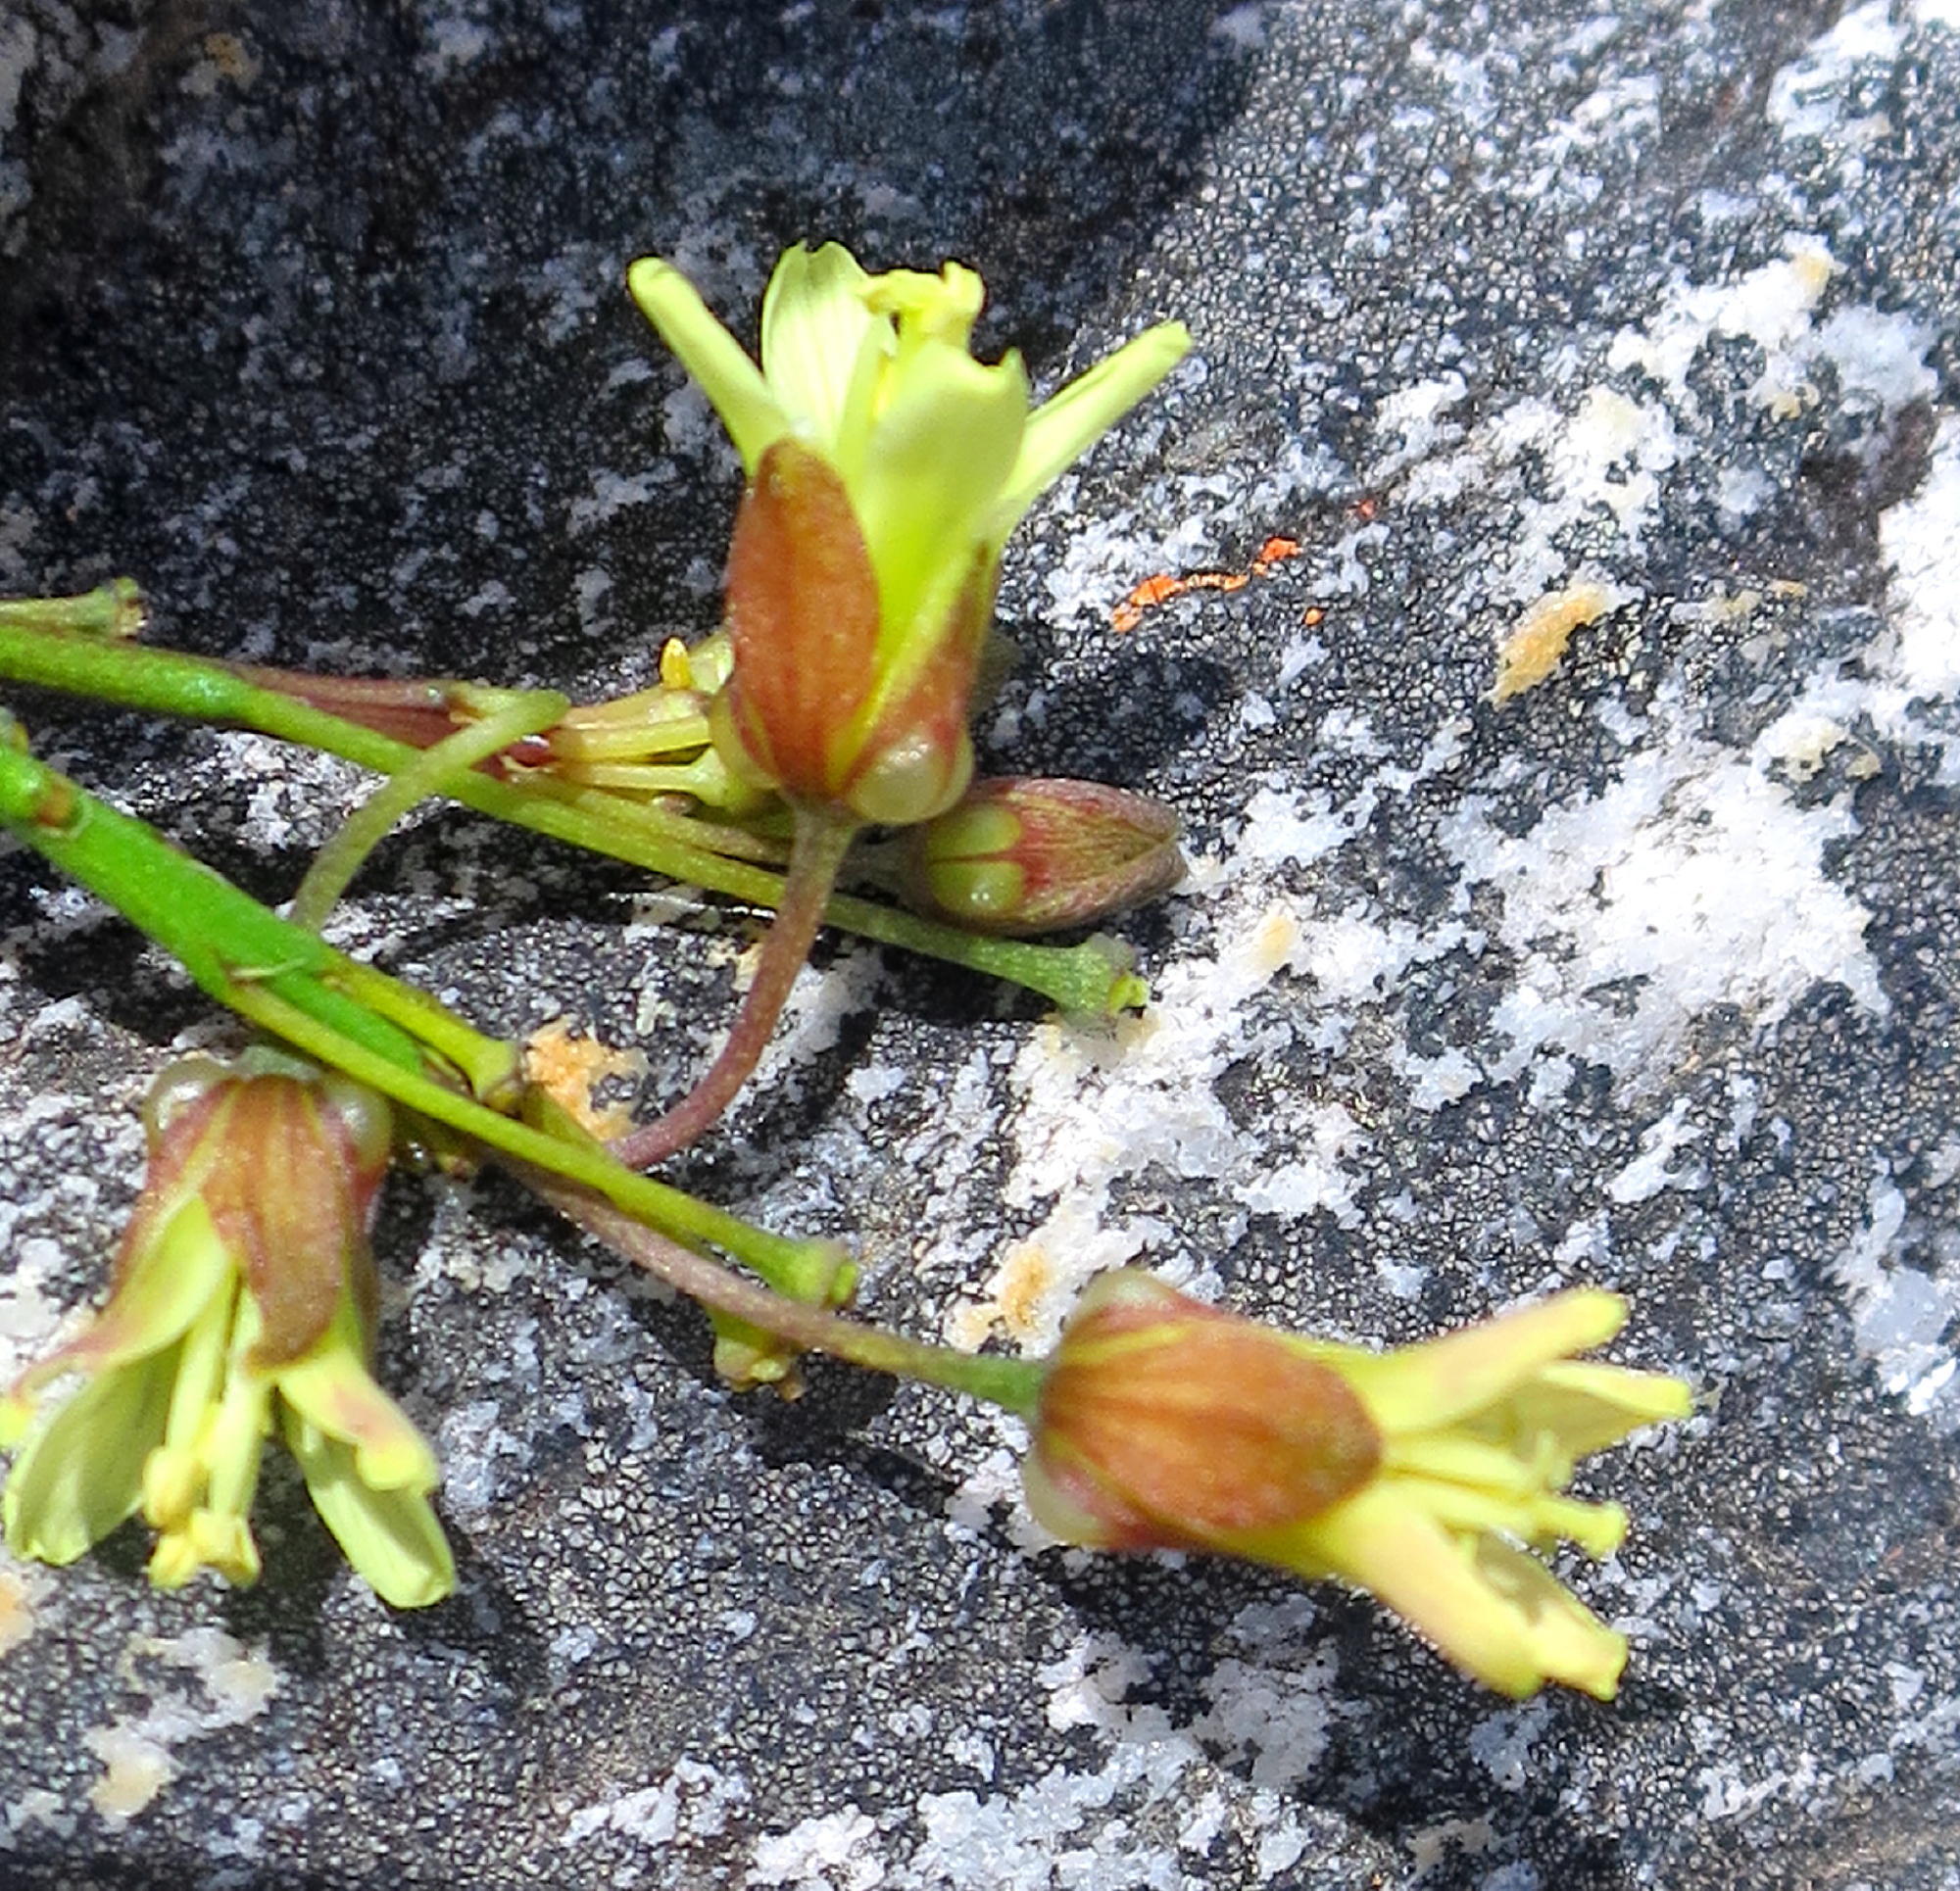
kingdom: Plantae
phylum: Tracheophyta
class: Magnoliopsida
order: Brassicales
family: Brassicaceae
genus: Heliophila
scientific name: Heliophila elongata
